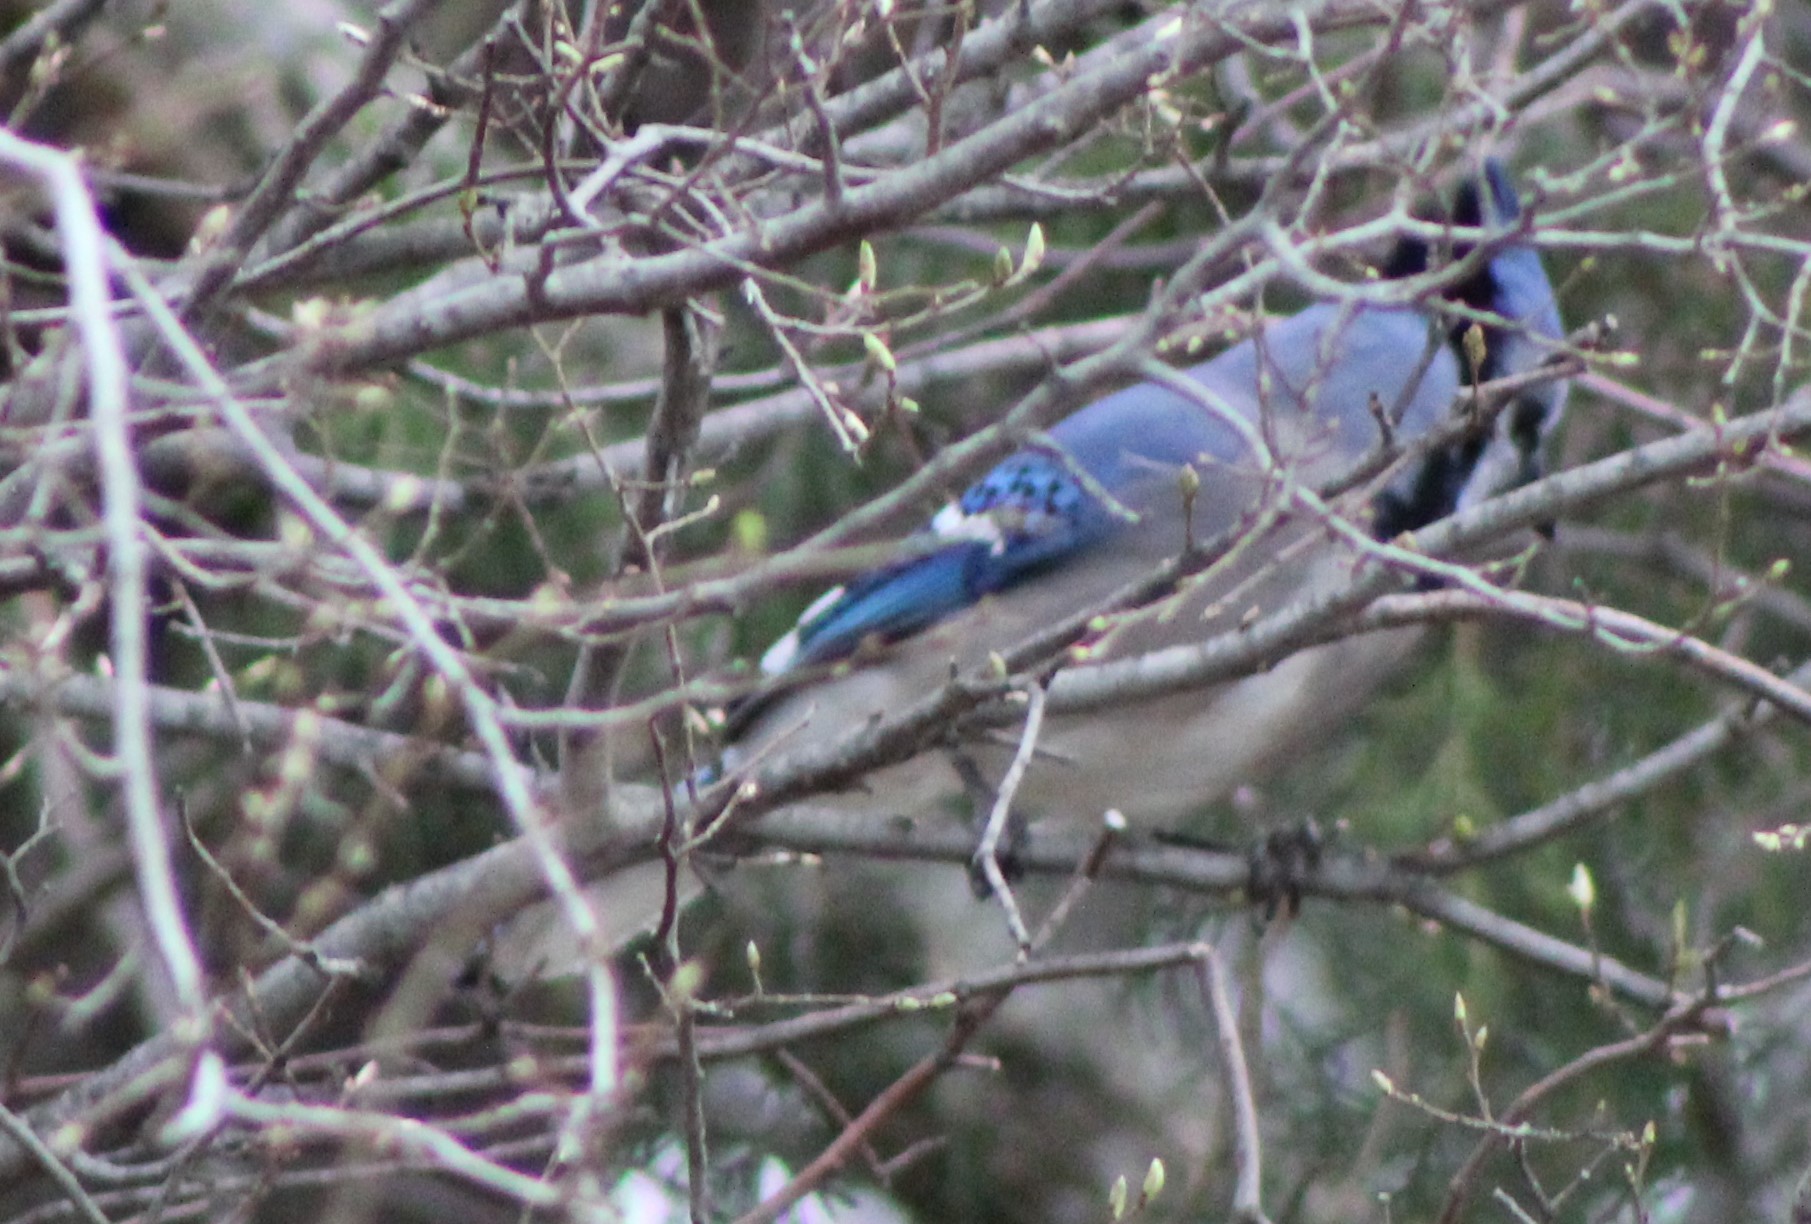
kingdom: Animalia
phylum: Chordata
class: Aves
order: Passeriformes
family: Corvidae
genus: Cyanocitta
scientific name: Cyanocitta cristata
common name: Blue jay
